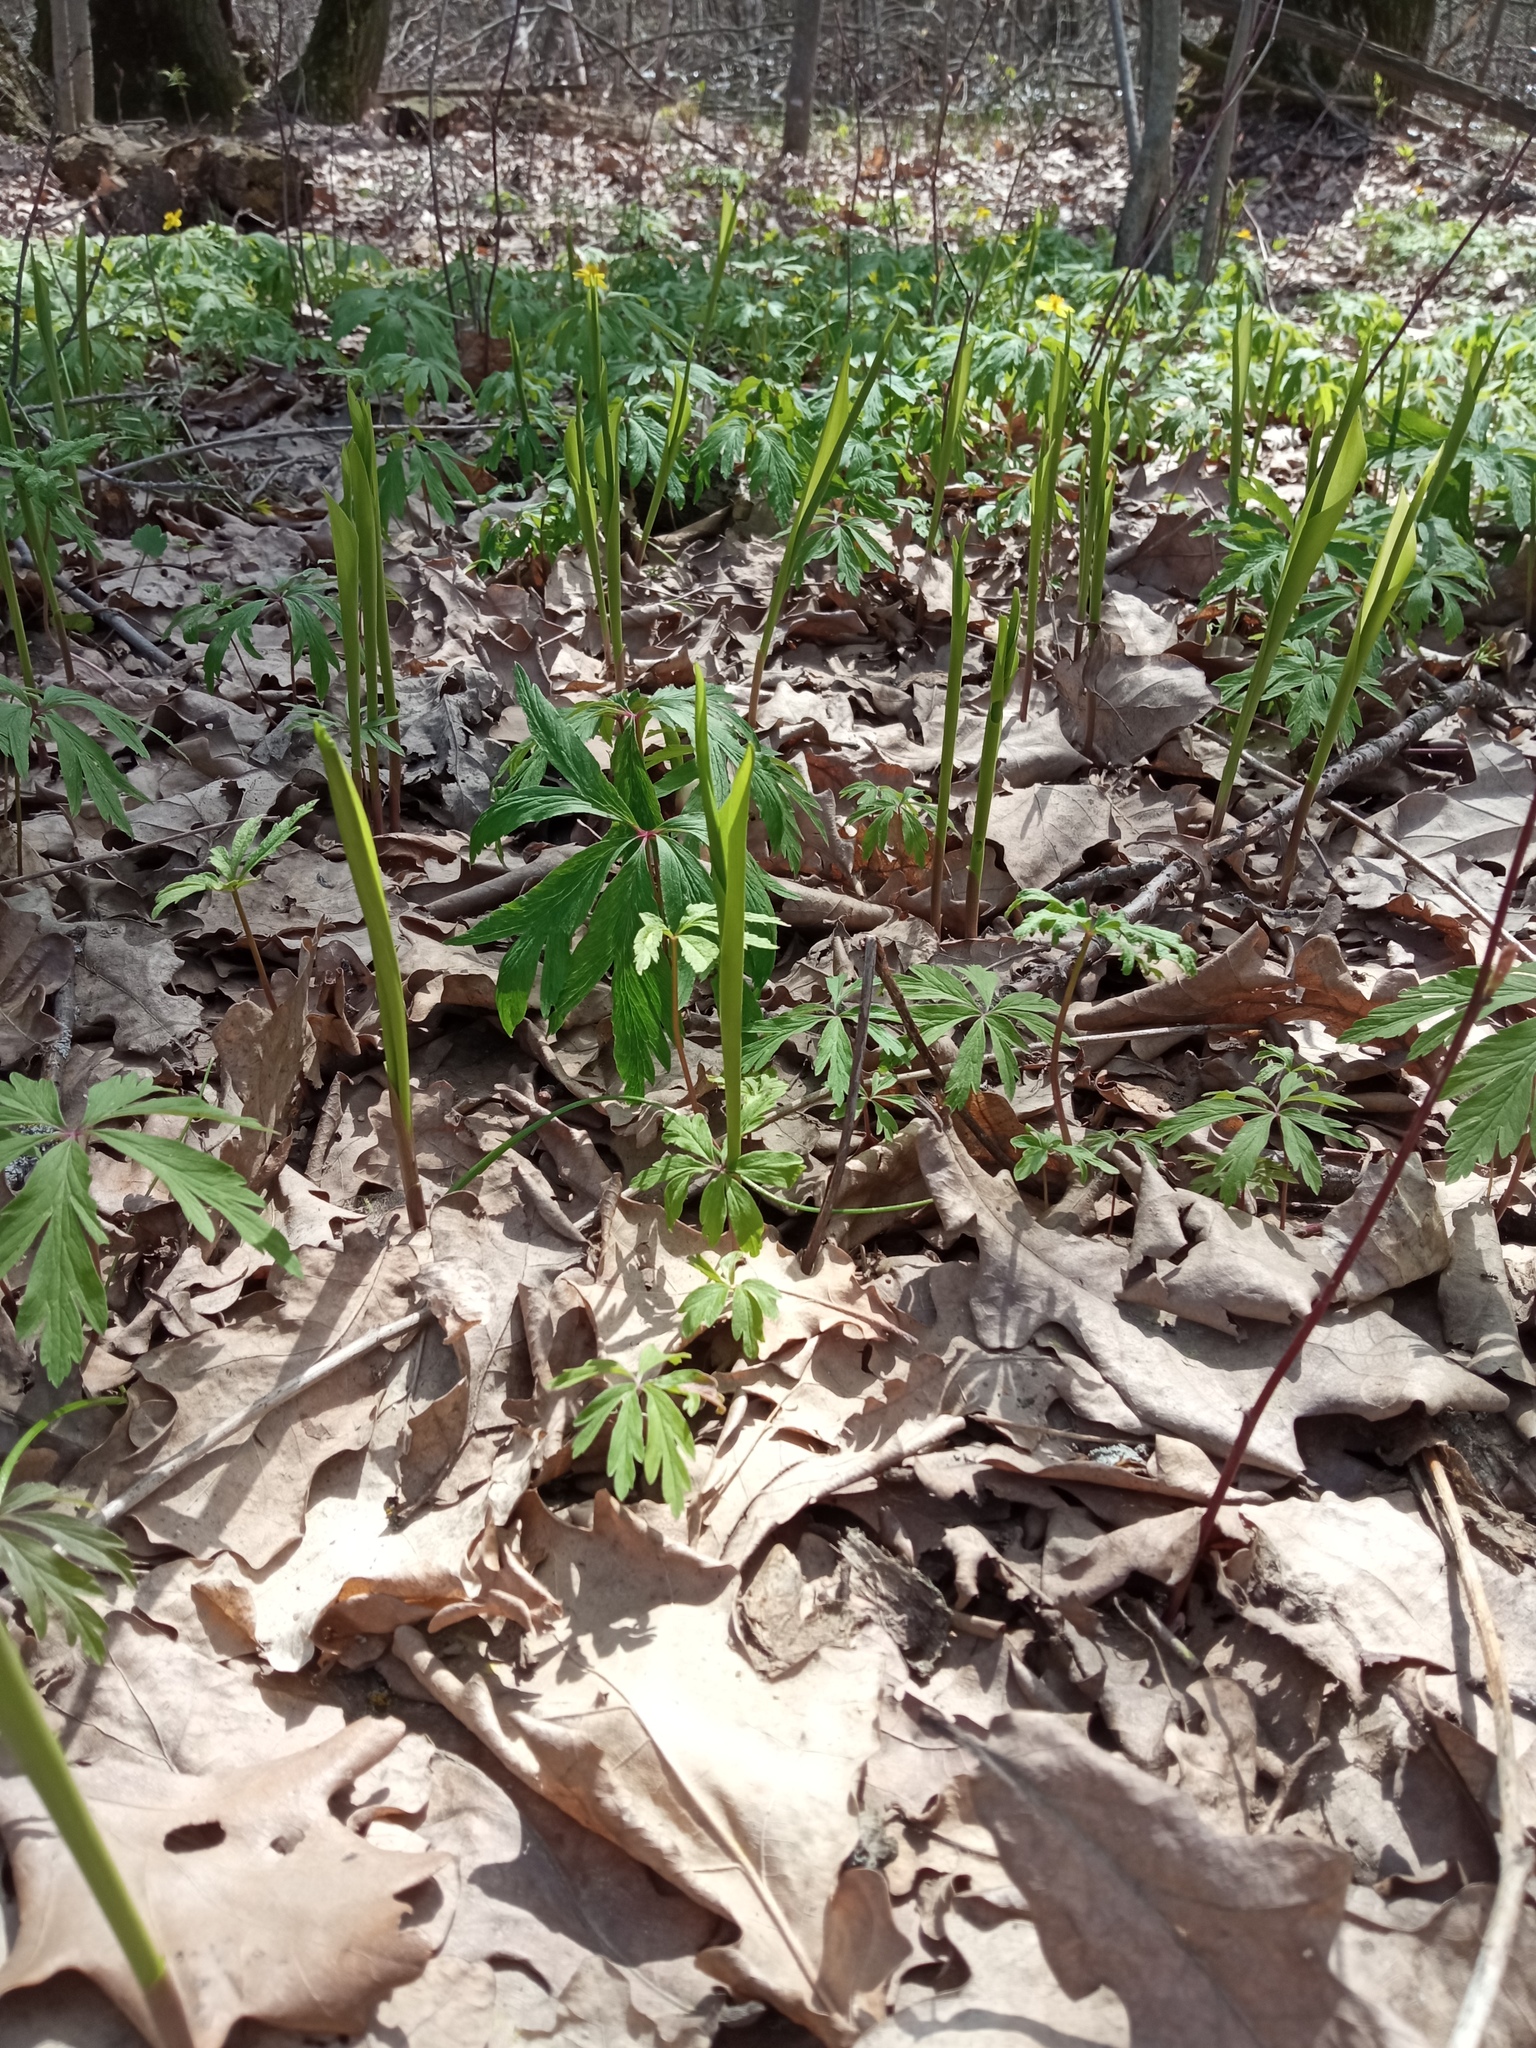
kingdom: Plantae
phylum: Tracheophyta
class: Liliopsida
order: Asparagales
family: Asparagaceae
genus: Convallaria
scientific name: Convallaria majalis
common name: Lily-of-the-valley
